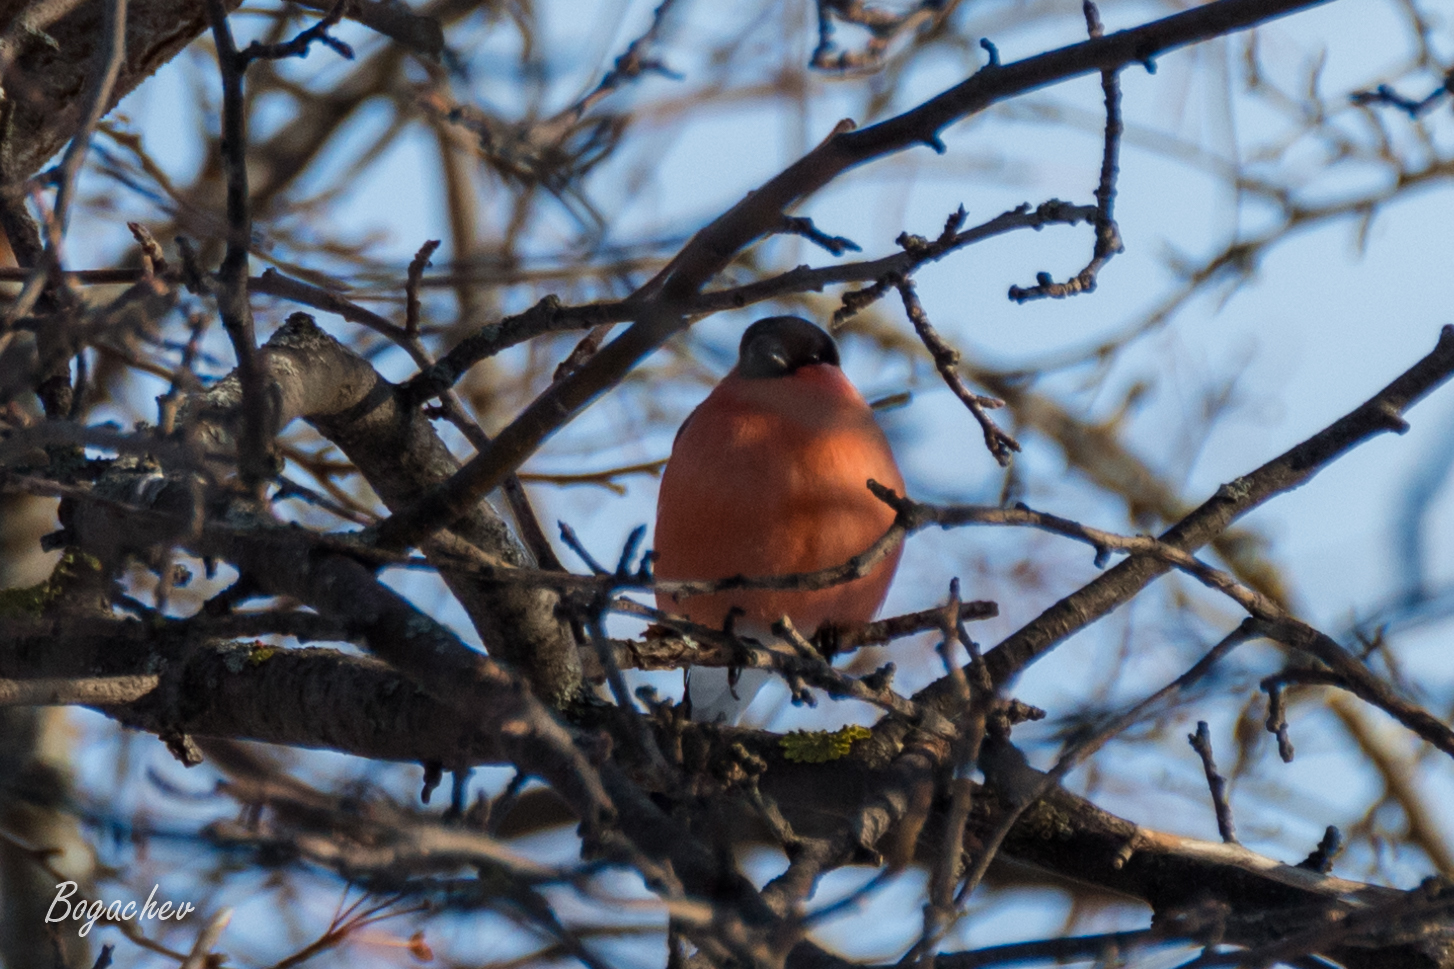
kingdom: Animalia
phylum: Chordata
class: Aves
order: Passeriformes
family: Fringillidae
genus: Pyrrhula
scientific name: Pyrrhula pyrrhula
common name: Eurasian bullfinch
